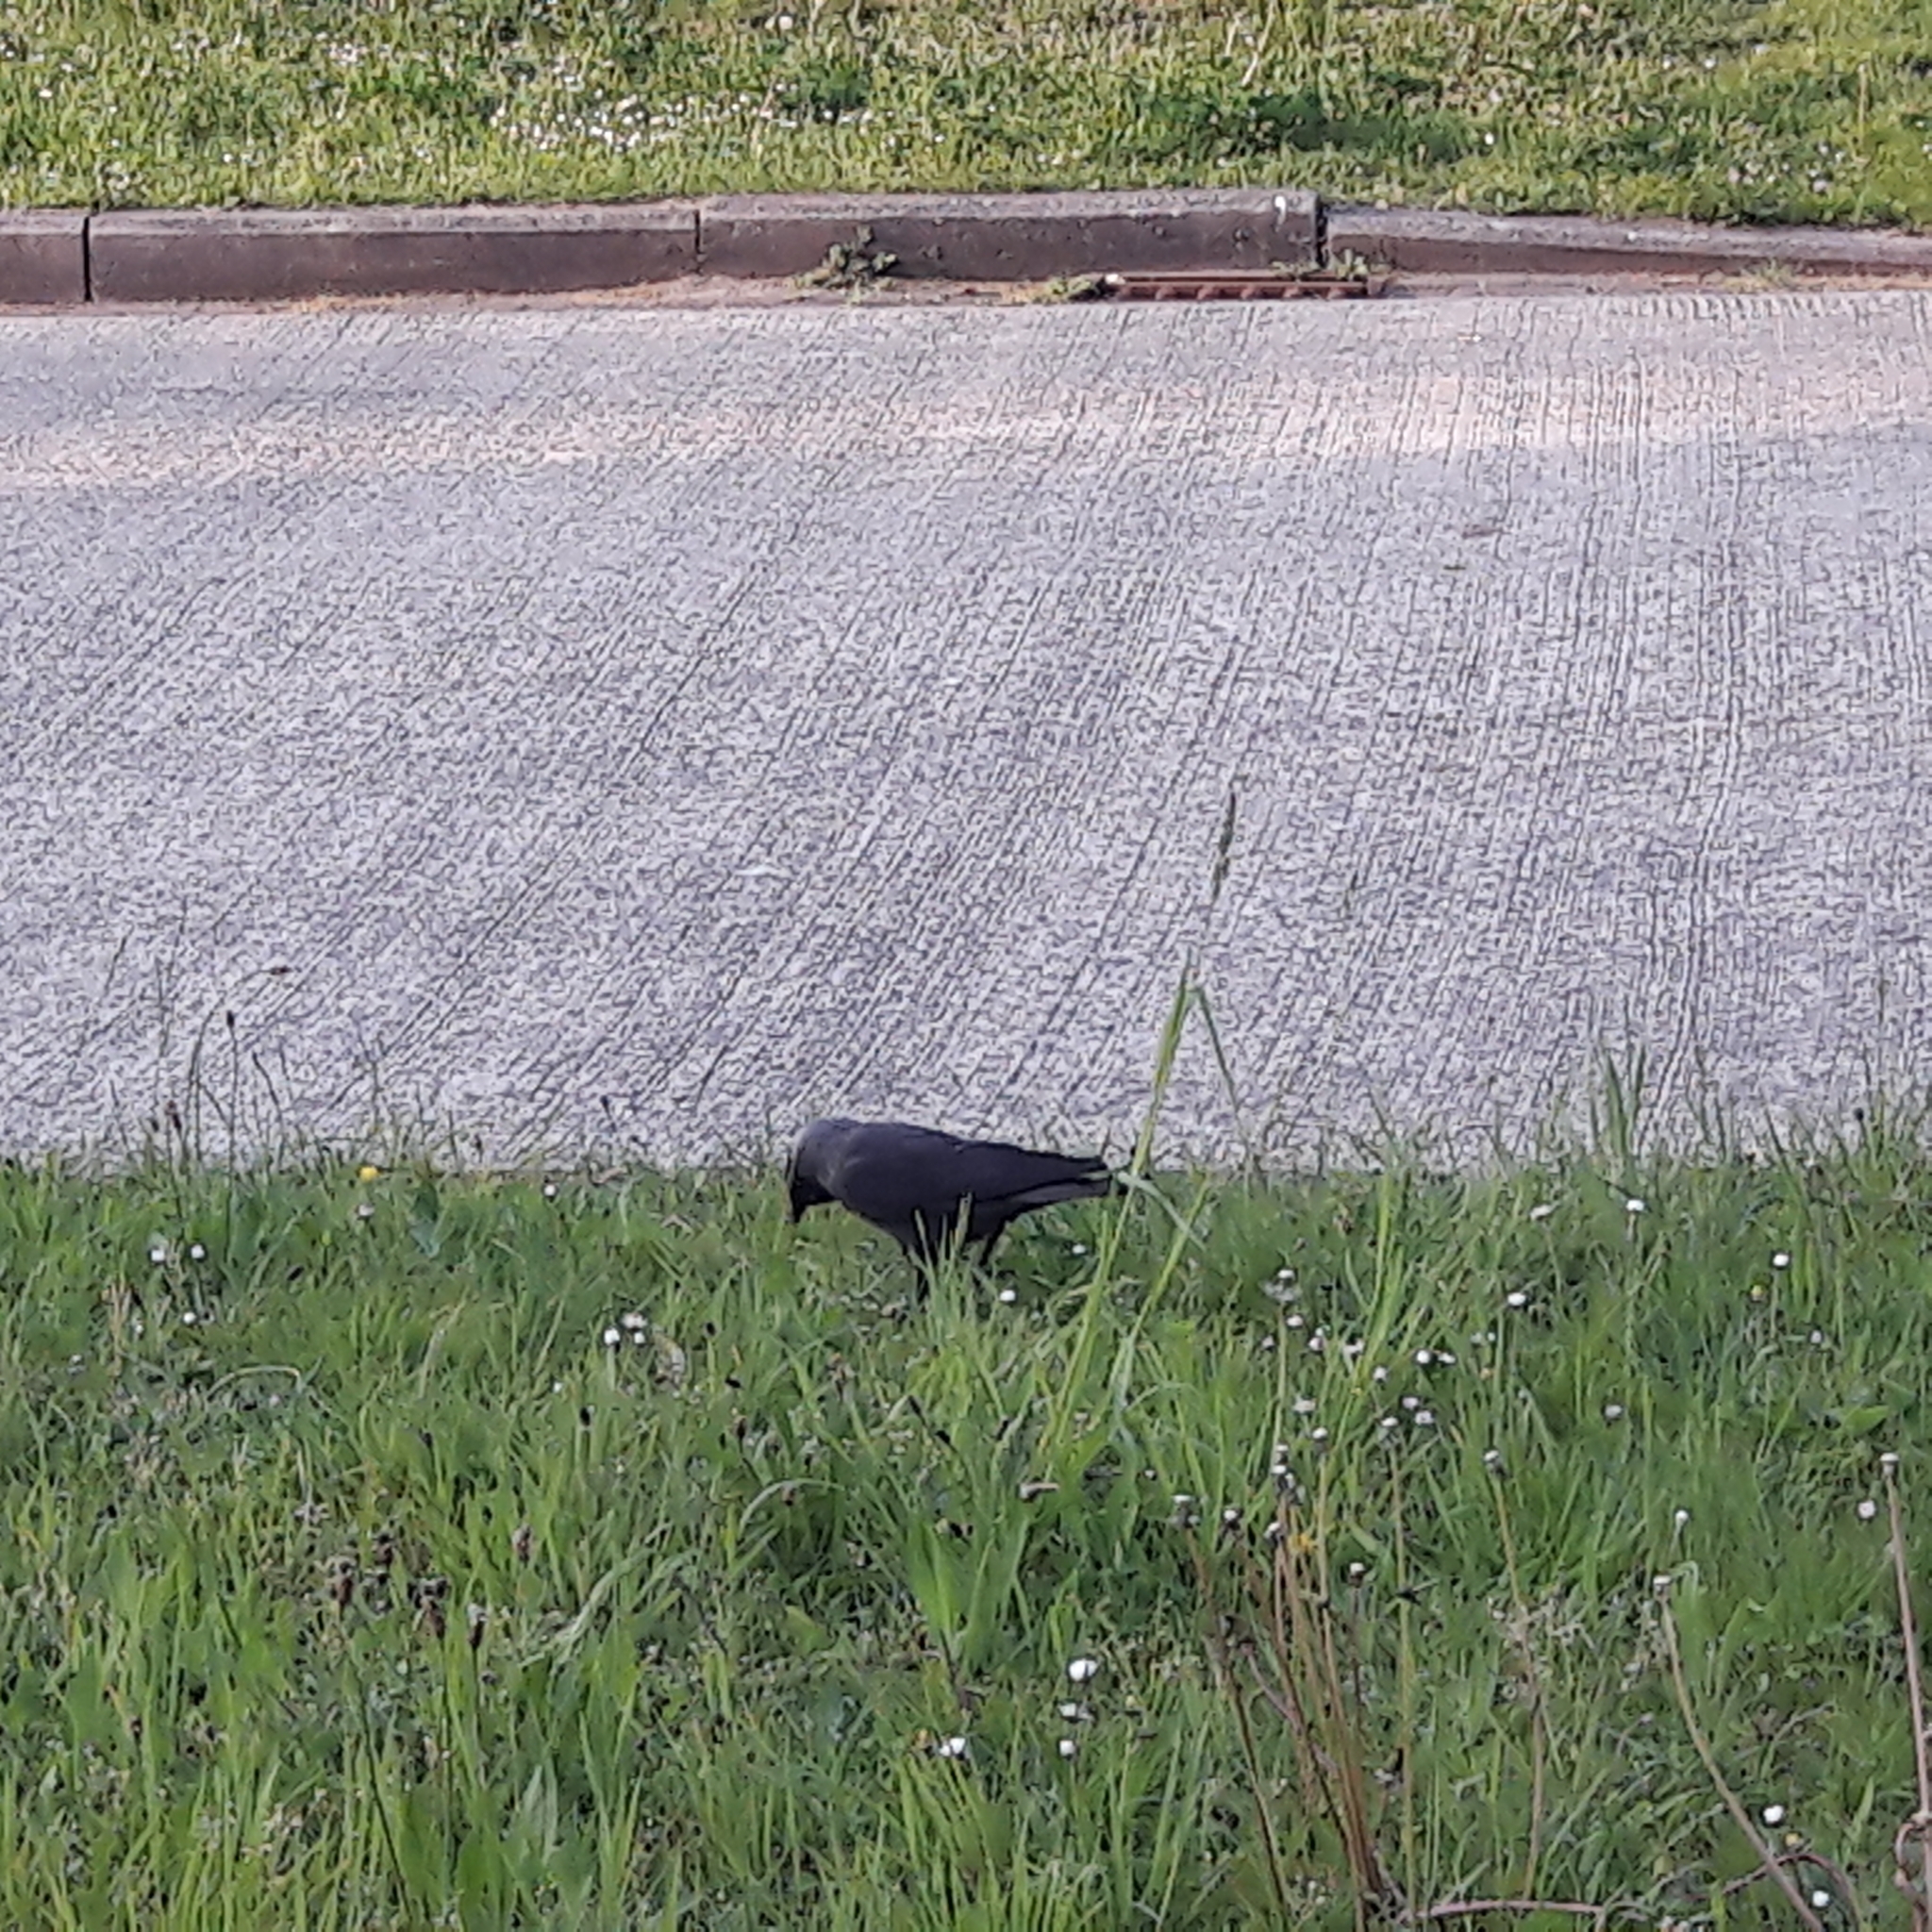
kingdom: Animalia
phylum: Chordata
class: Aves
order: Passeriformes
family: Corvidae
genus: Coloeus
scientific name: Coloeus monedula
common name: Western jackdaw
